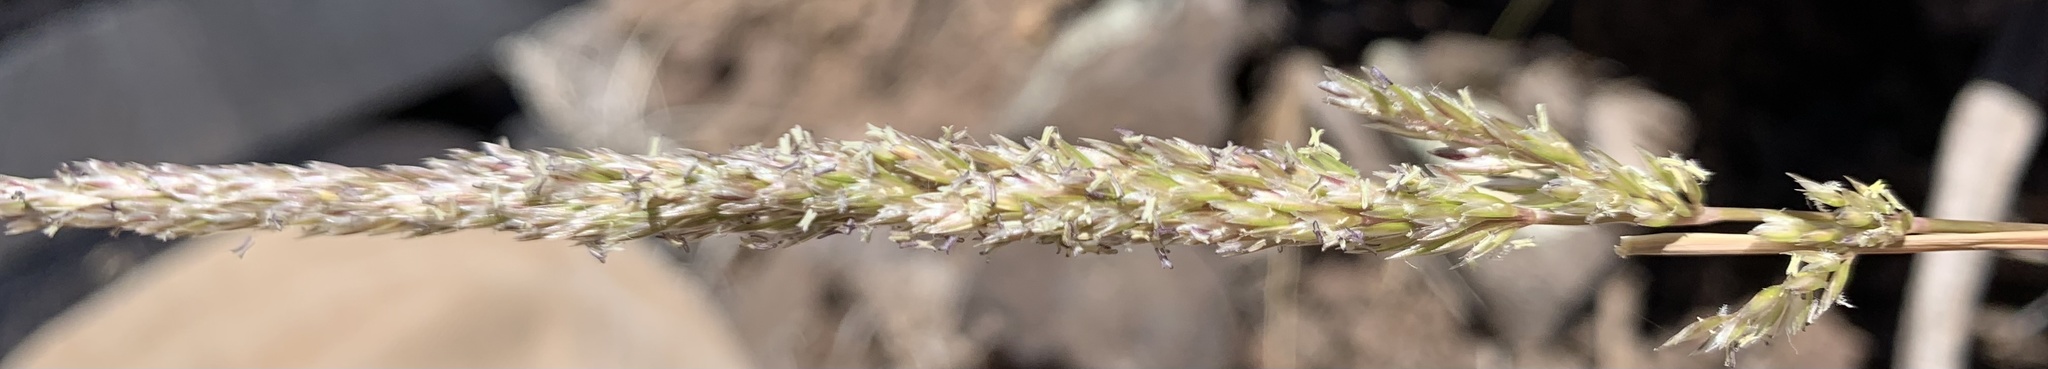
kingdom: Plantae
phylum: Tracheophyta
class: Liliopsida
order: Poales
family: Poaceae
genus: Koeleria
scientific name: Koeleria macrantha
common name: Crested hair-grass
